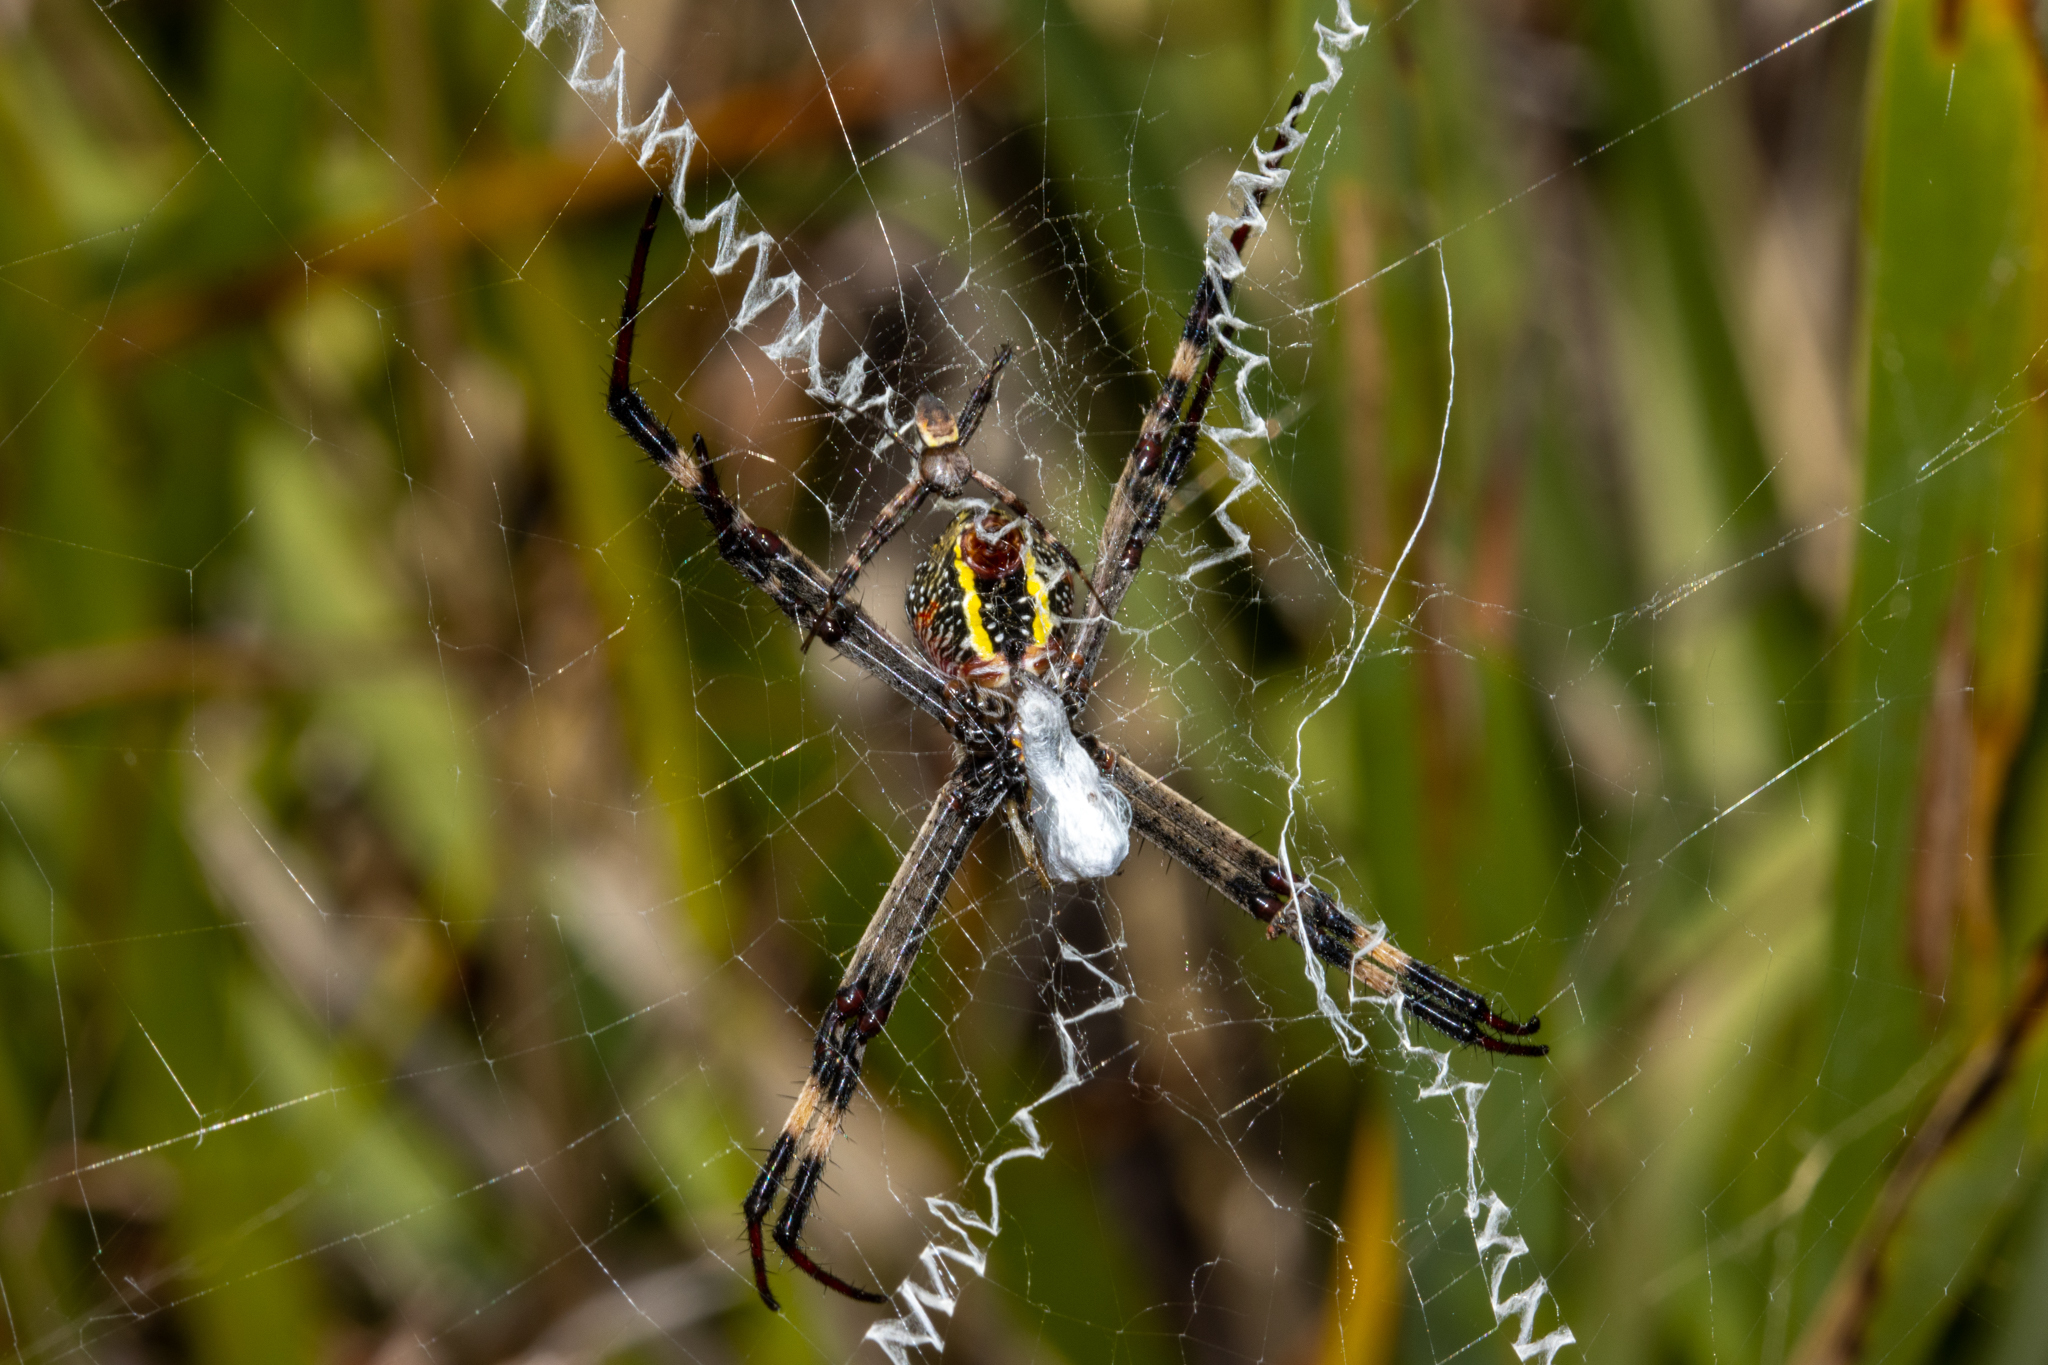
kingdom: Animalia
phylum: Arthropoda
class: Arachnida
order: Araneae
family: Araneidae
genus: Argiope
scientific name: Argiope keyserlingi
